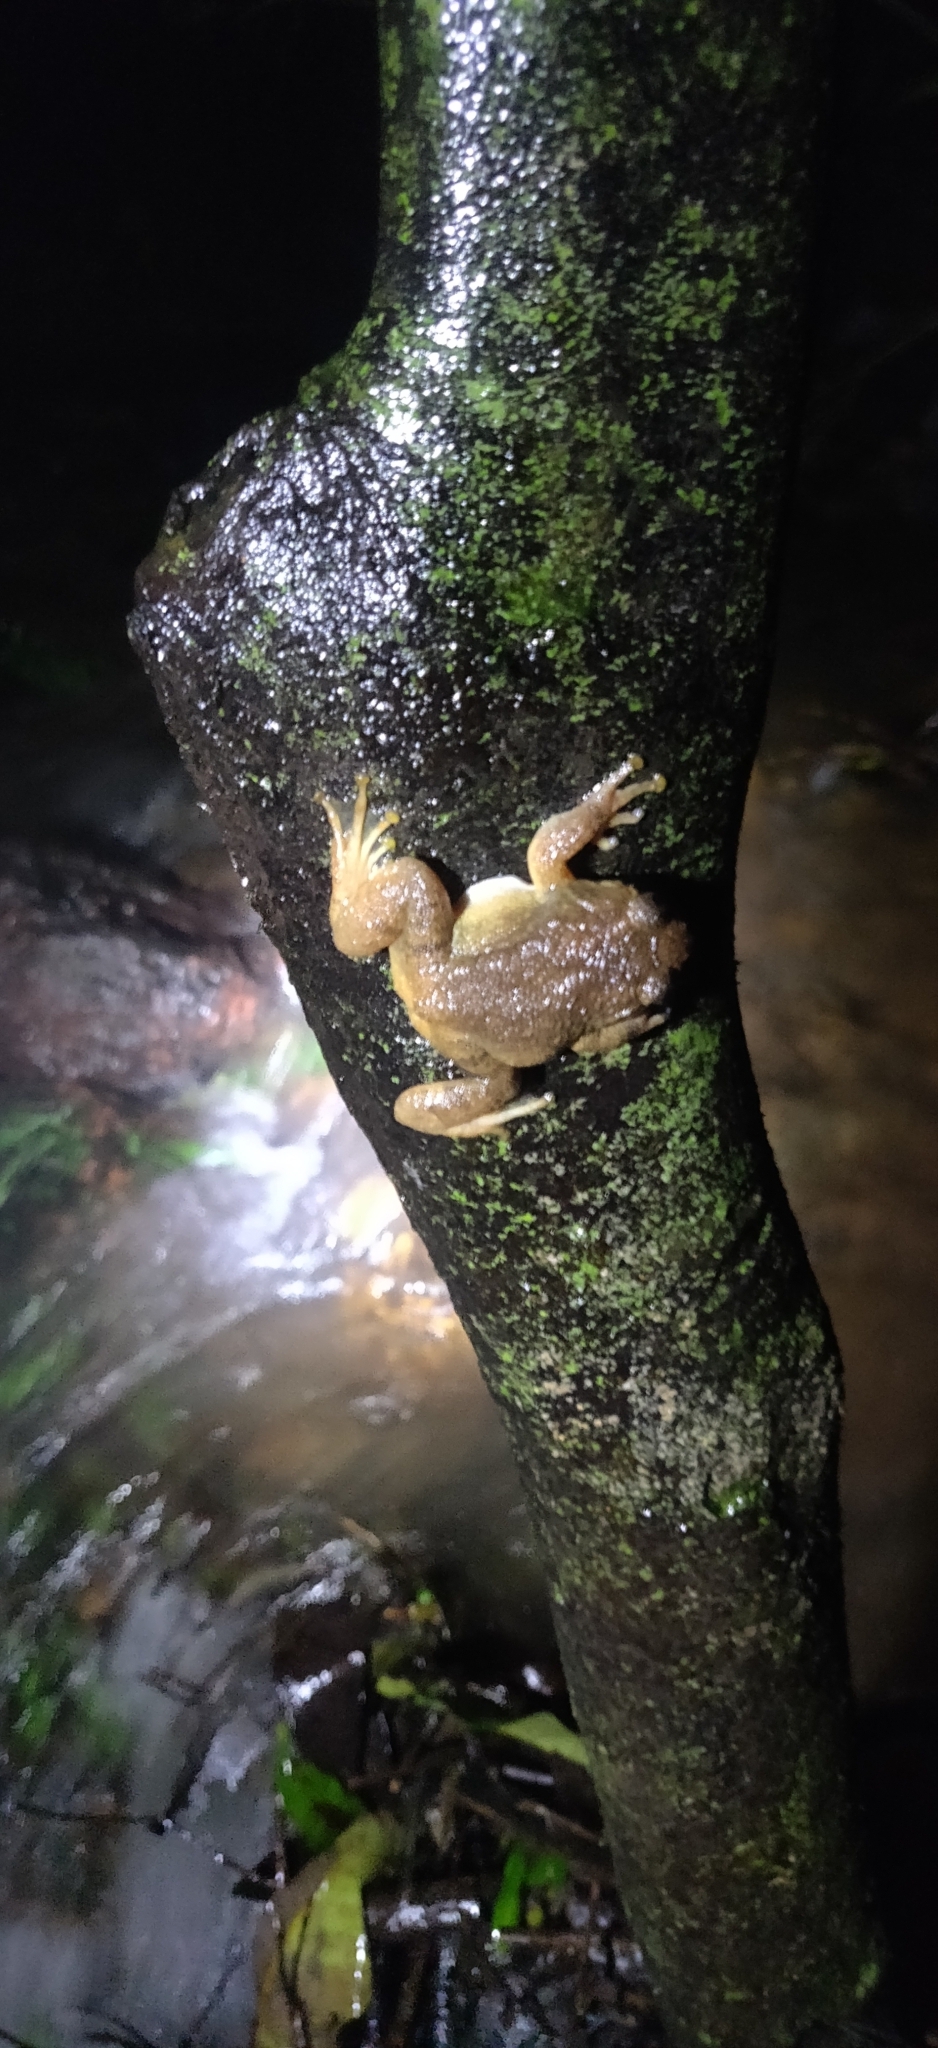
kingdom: Animalia
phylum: Chordata
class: Amphibia
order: Anura
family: Nyctibatrachidae
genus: Nyctibatrachus
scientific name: Nyctibatrachus petraeus
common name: Castle rock night frog
